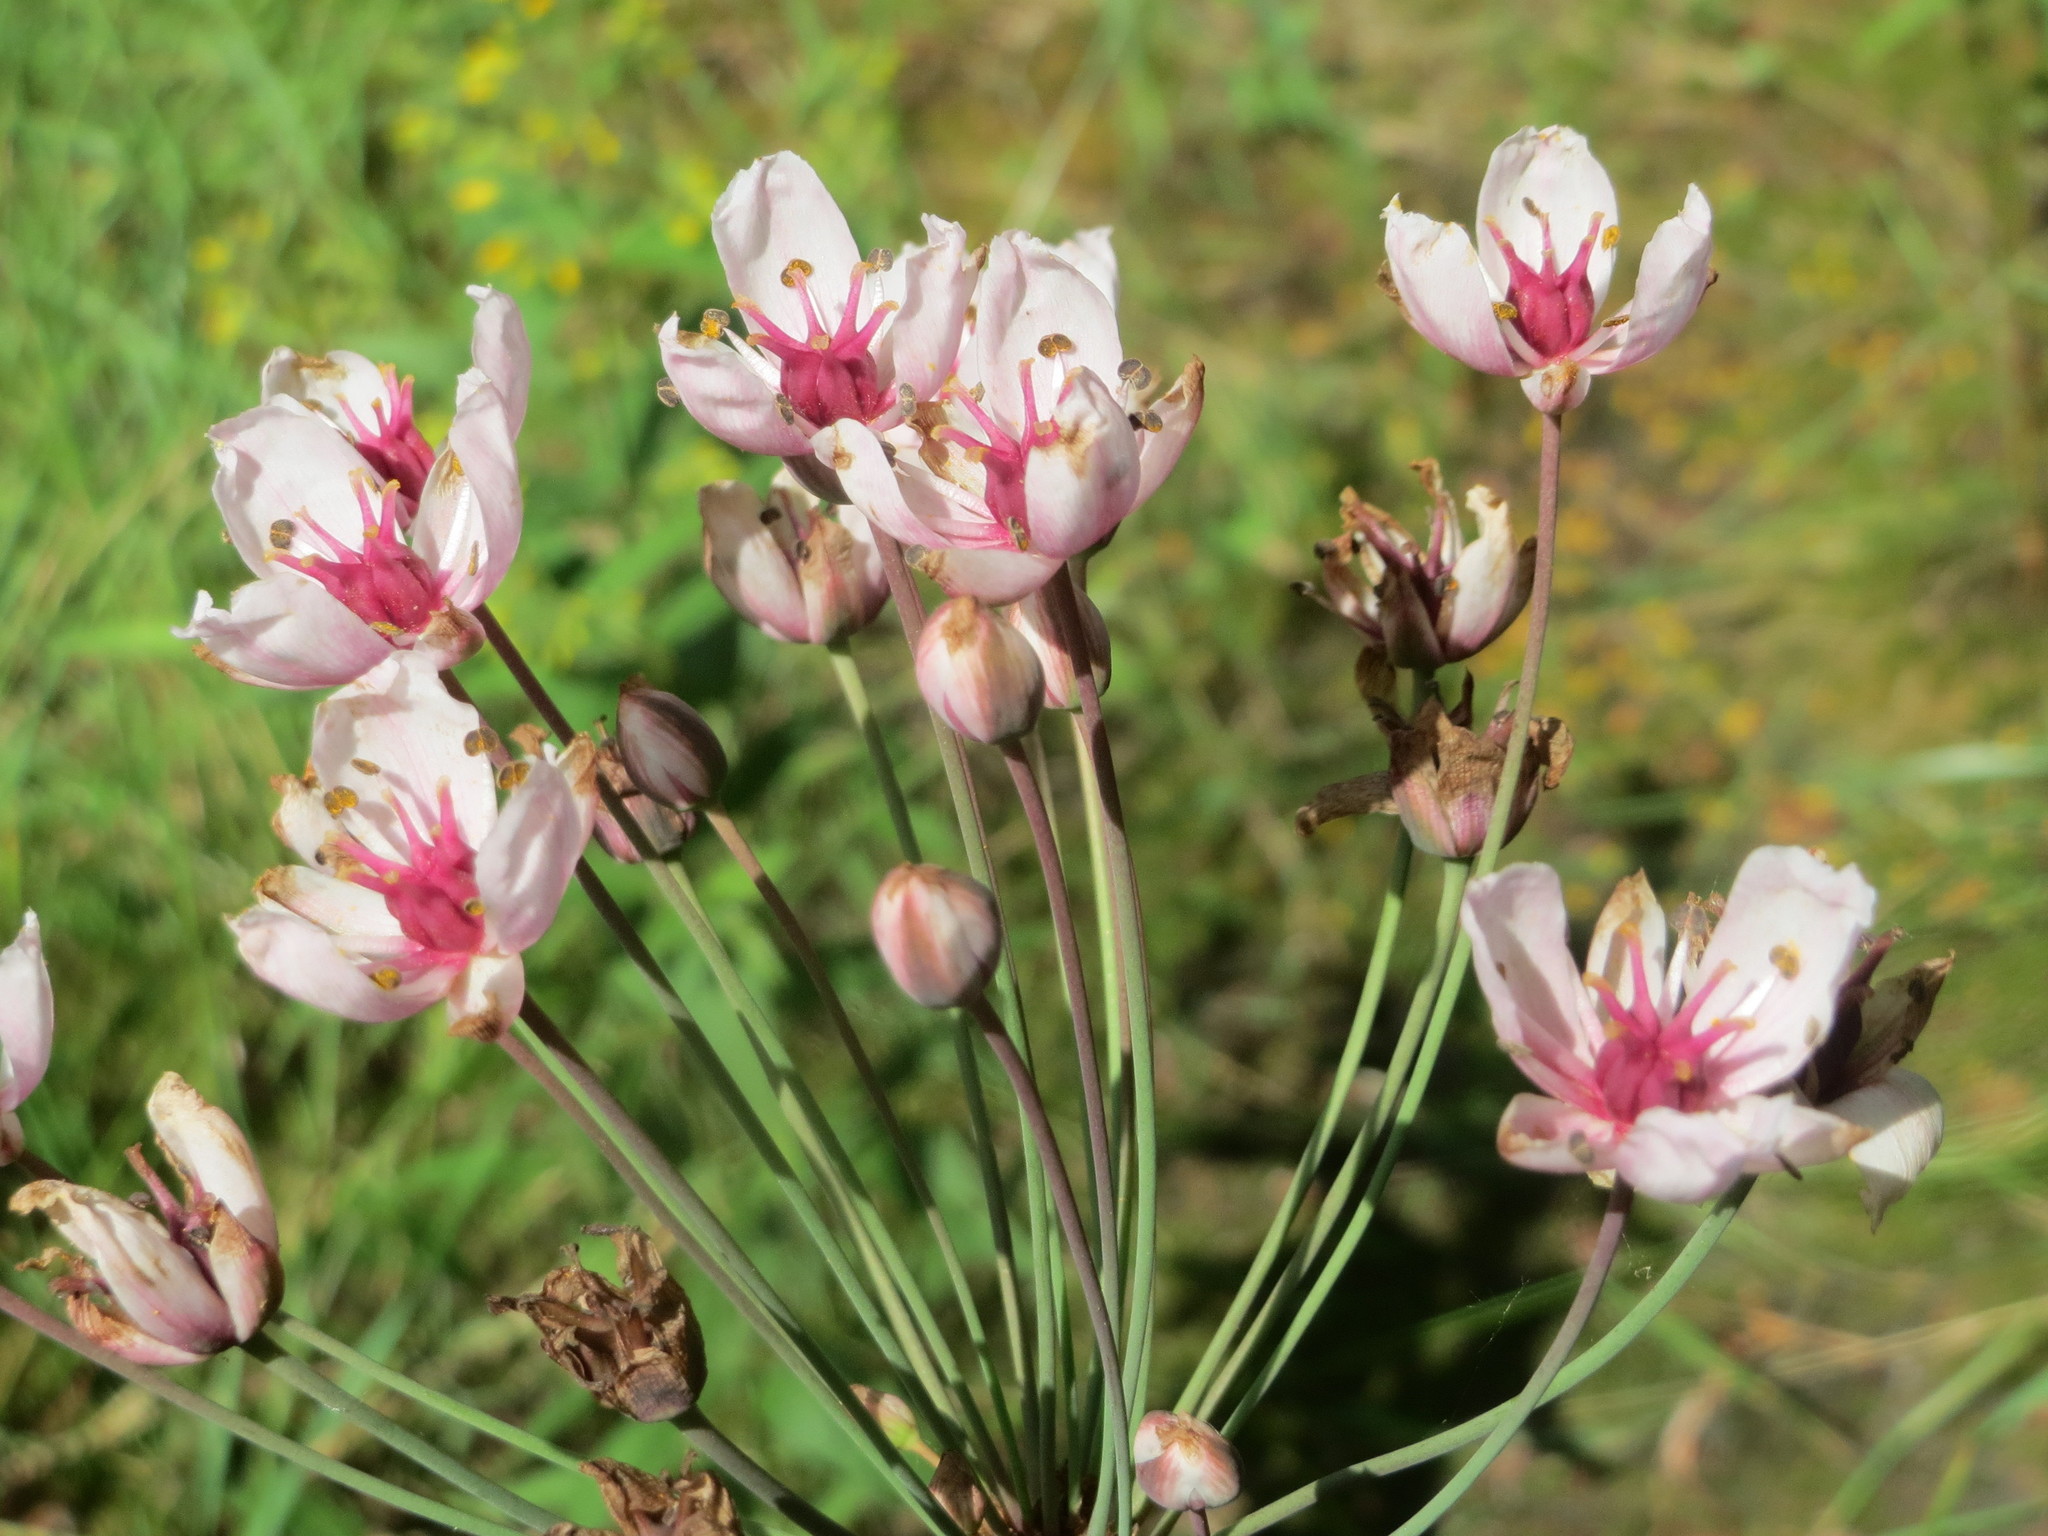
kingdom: Plantae
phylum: Tracheophyta
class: Liliopsida
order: Alismatales
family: Butomaceae
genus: Butomus
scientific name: Butomus umbellatus
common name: Flowering-rush
